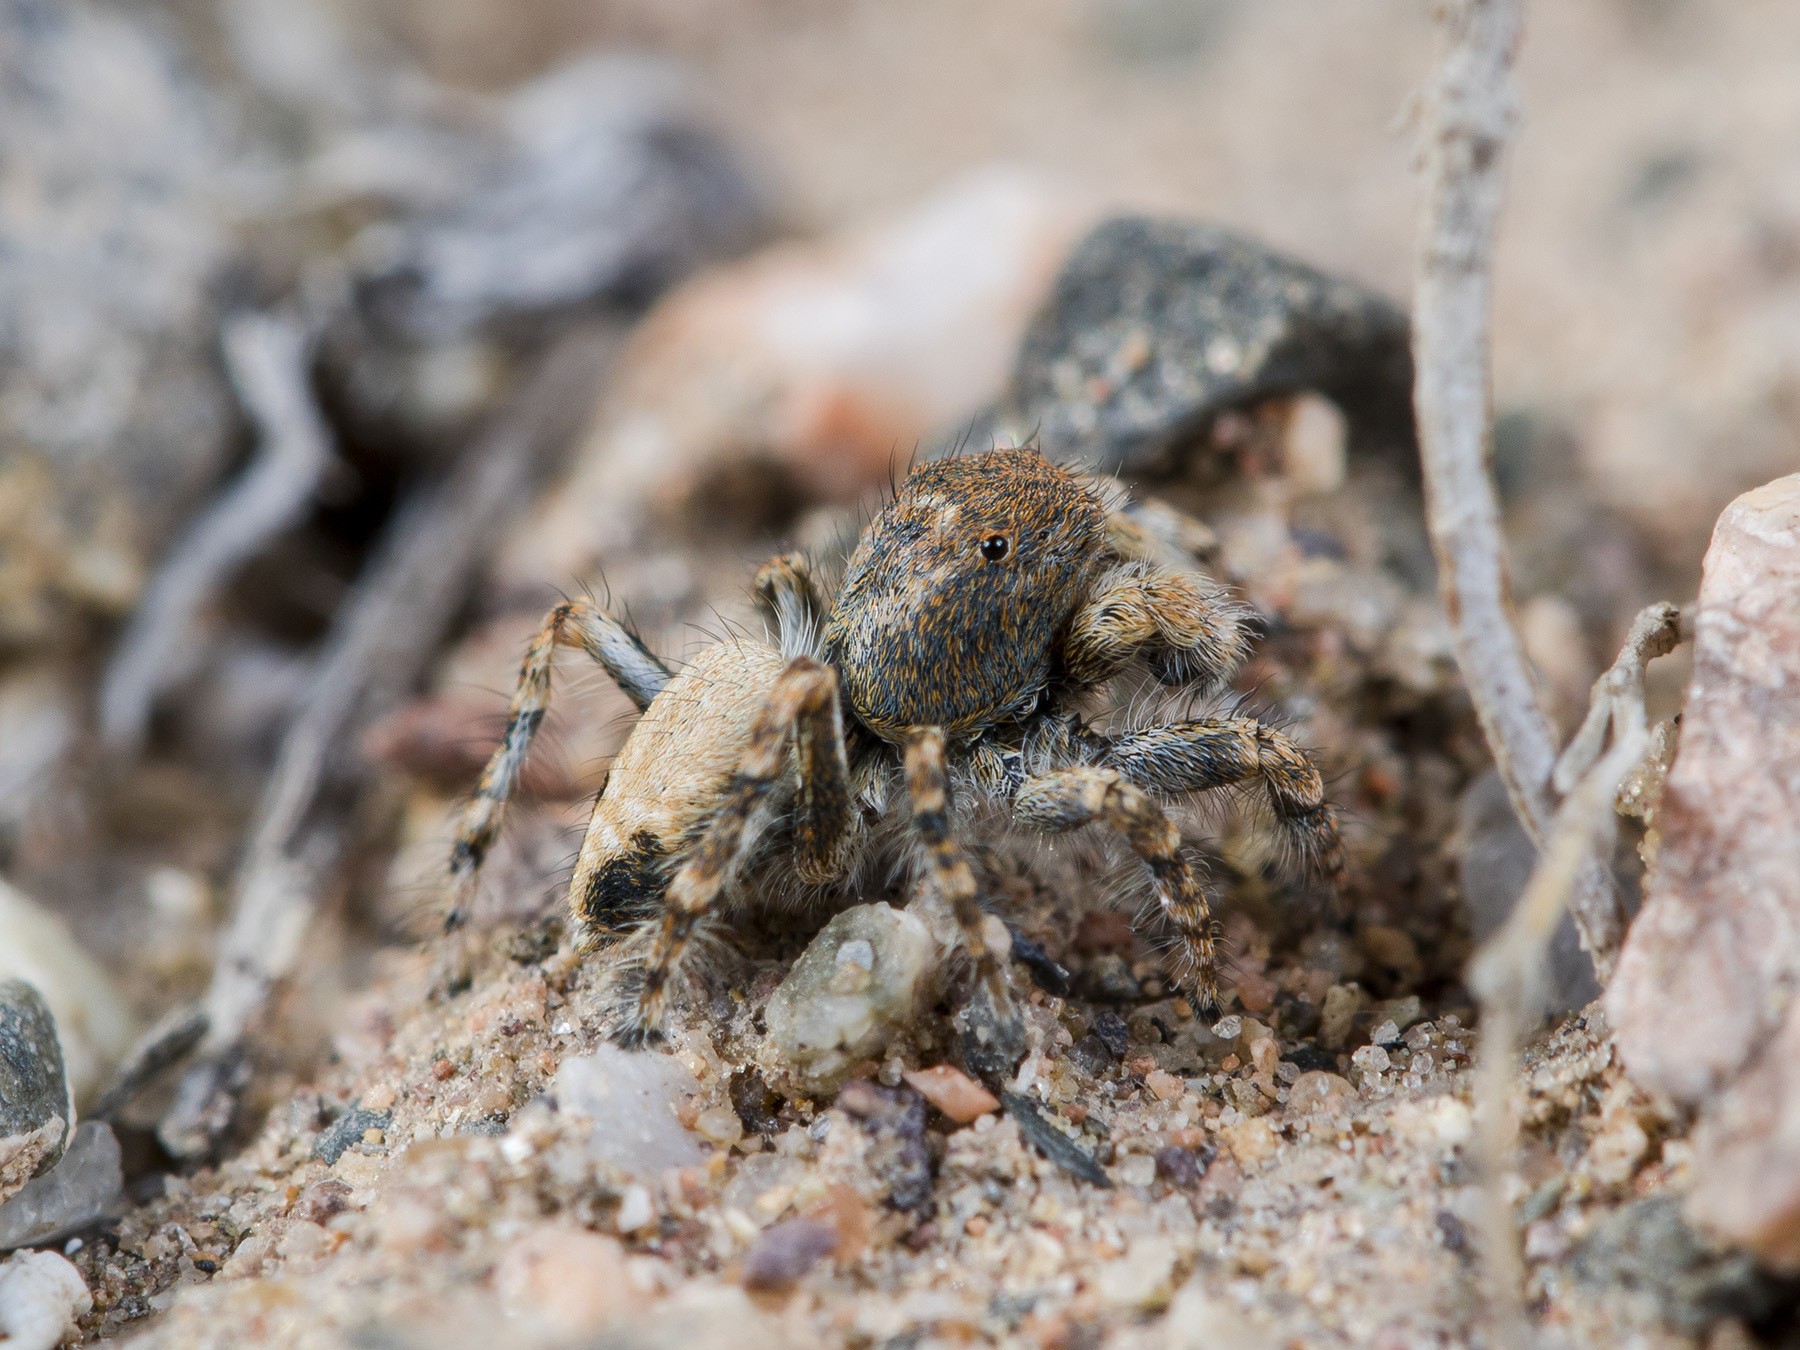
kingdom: Animalia
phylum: Arthropoda
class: Arachnida
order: Araneae
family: Salticidae
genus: Yllenus
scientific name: Yllenus zyuzini
